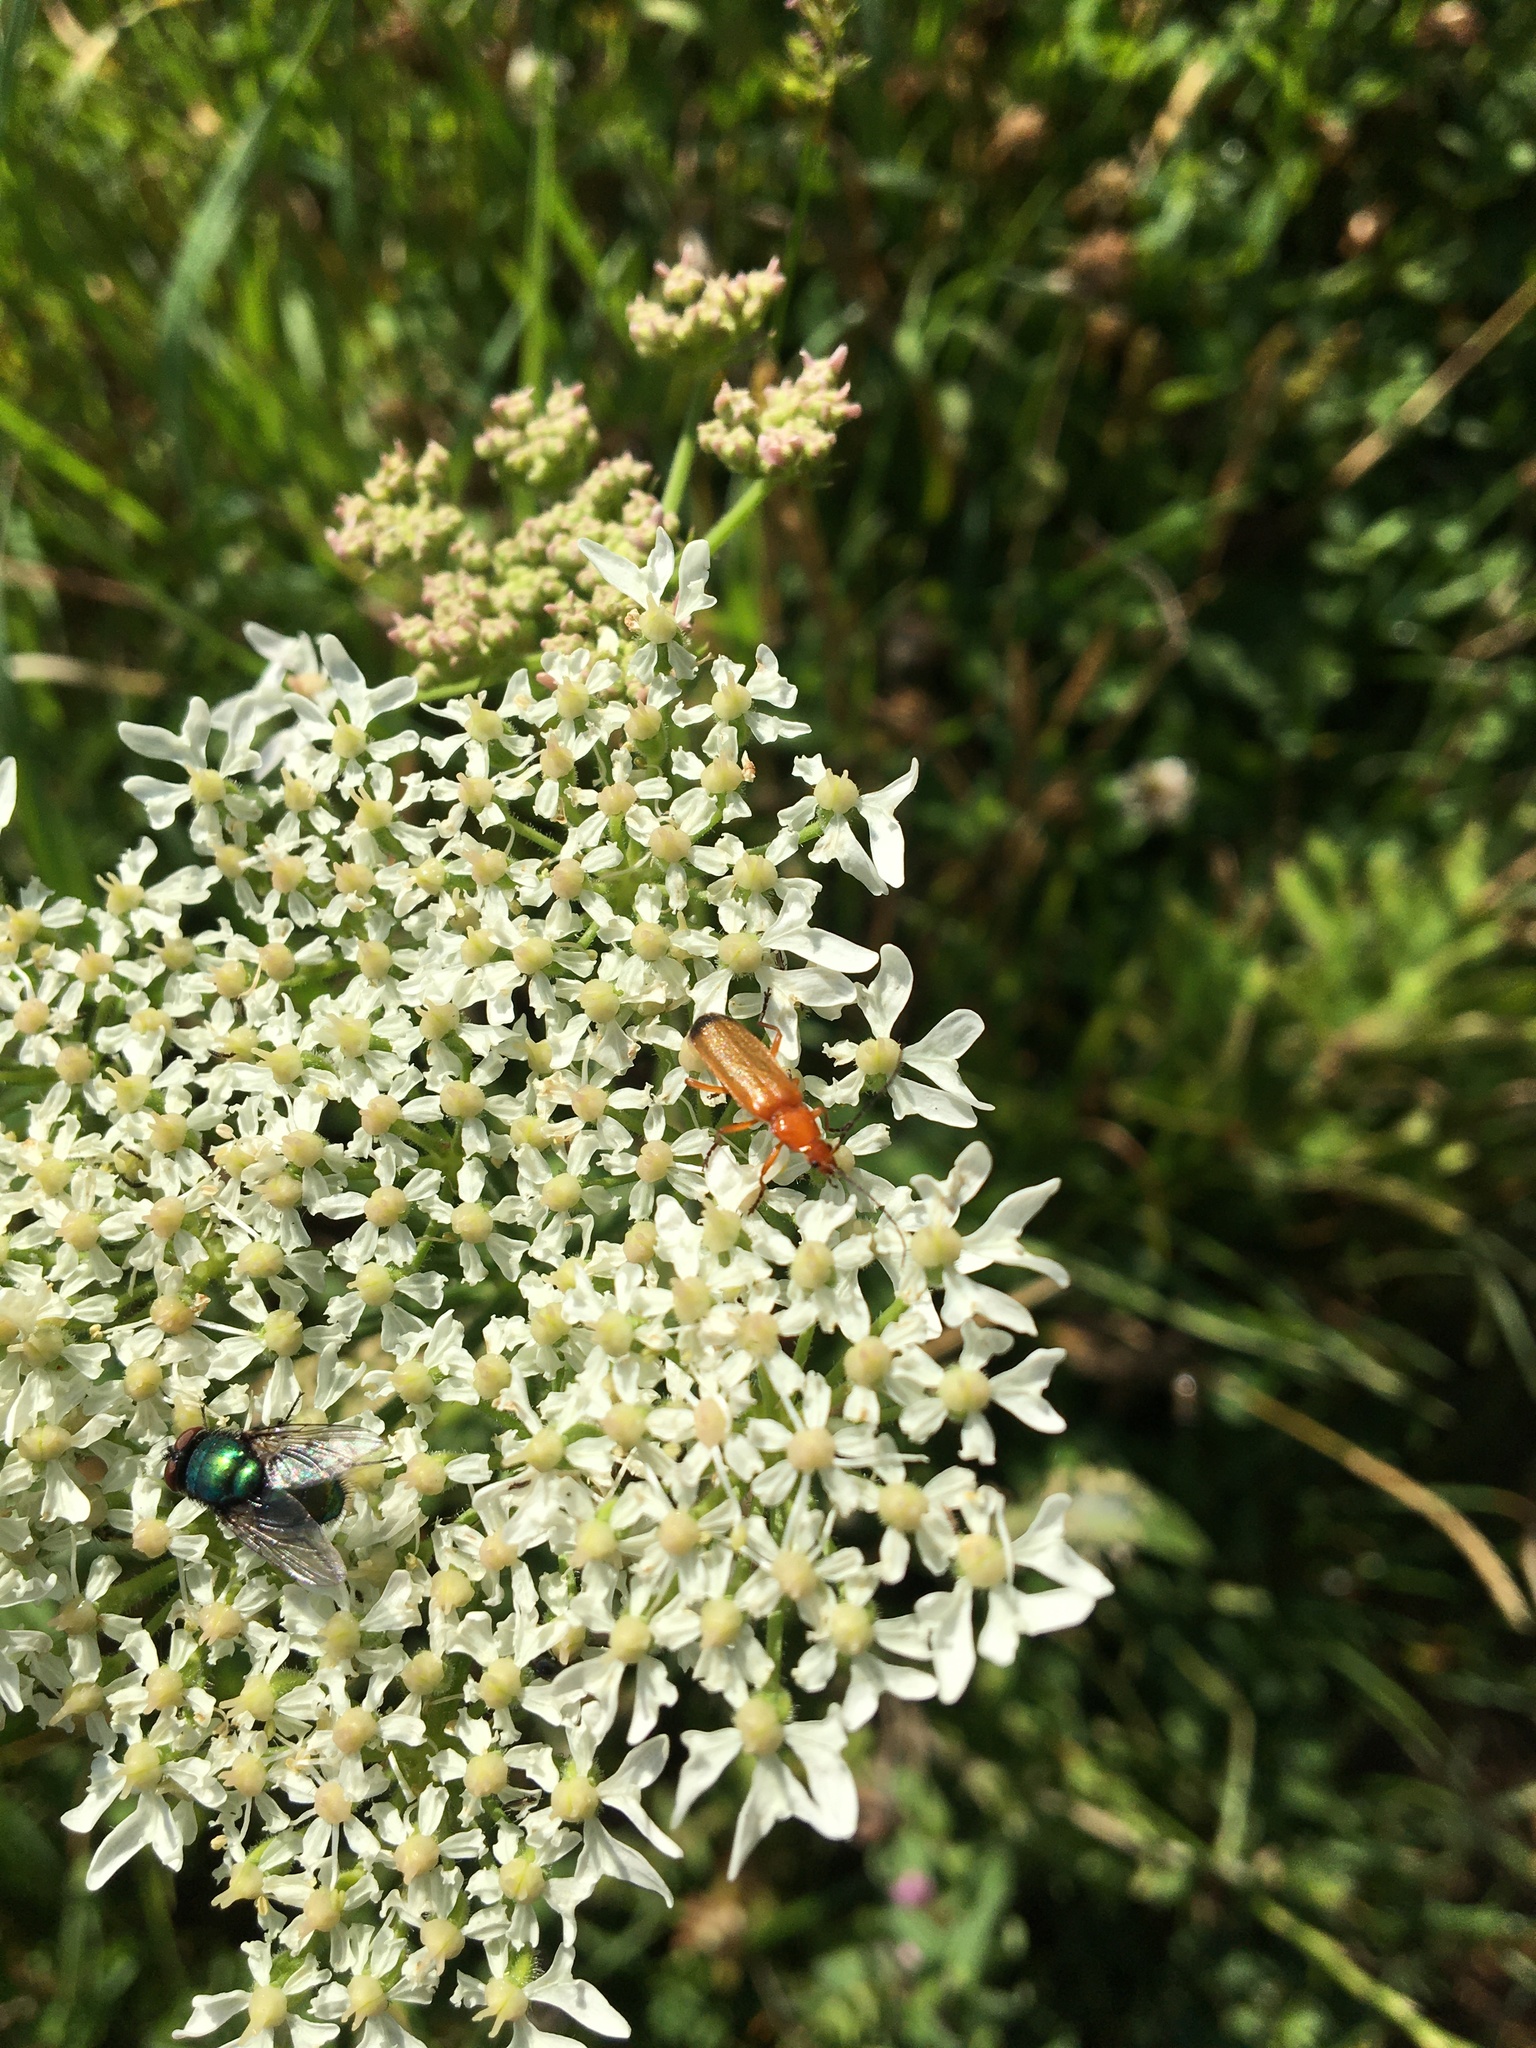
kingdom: Animalia
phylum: Arthropoda
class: Insecta
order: Coleoptera
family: Cantharidae
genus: Rhagonycha
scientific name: Rhagonycha fulva
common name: Common red soldier beetle
